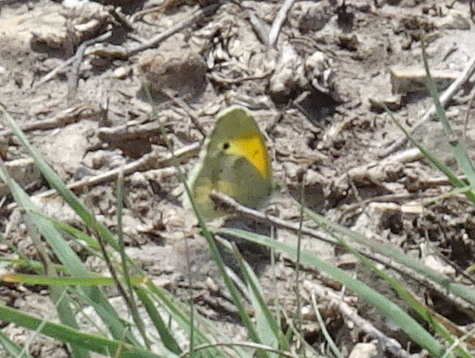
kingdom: Animalia
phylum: Arthropoda
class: Insecta
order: Lepidoptera
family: Pieridae
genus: Nathalis
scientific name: Nathalis iole
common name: Dainty sulphur
